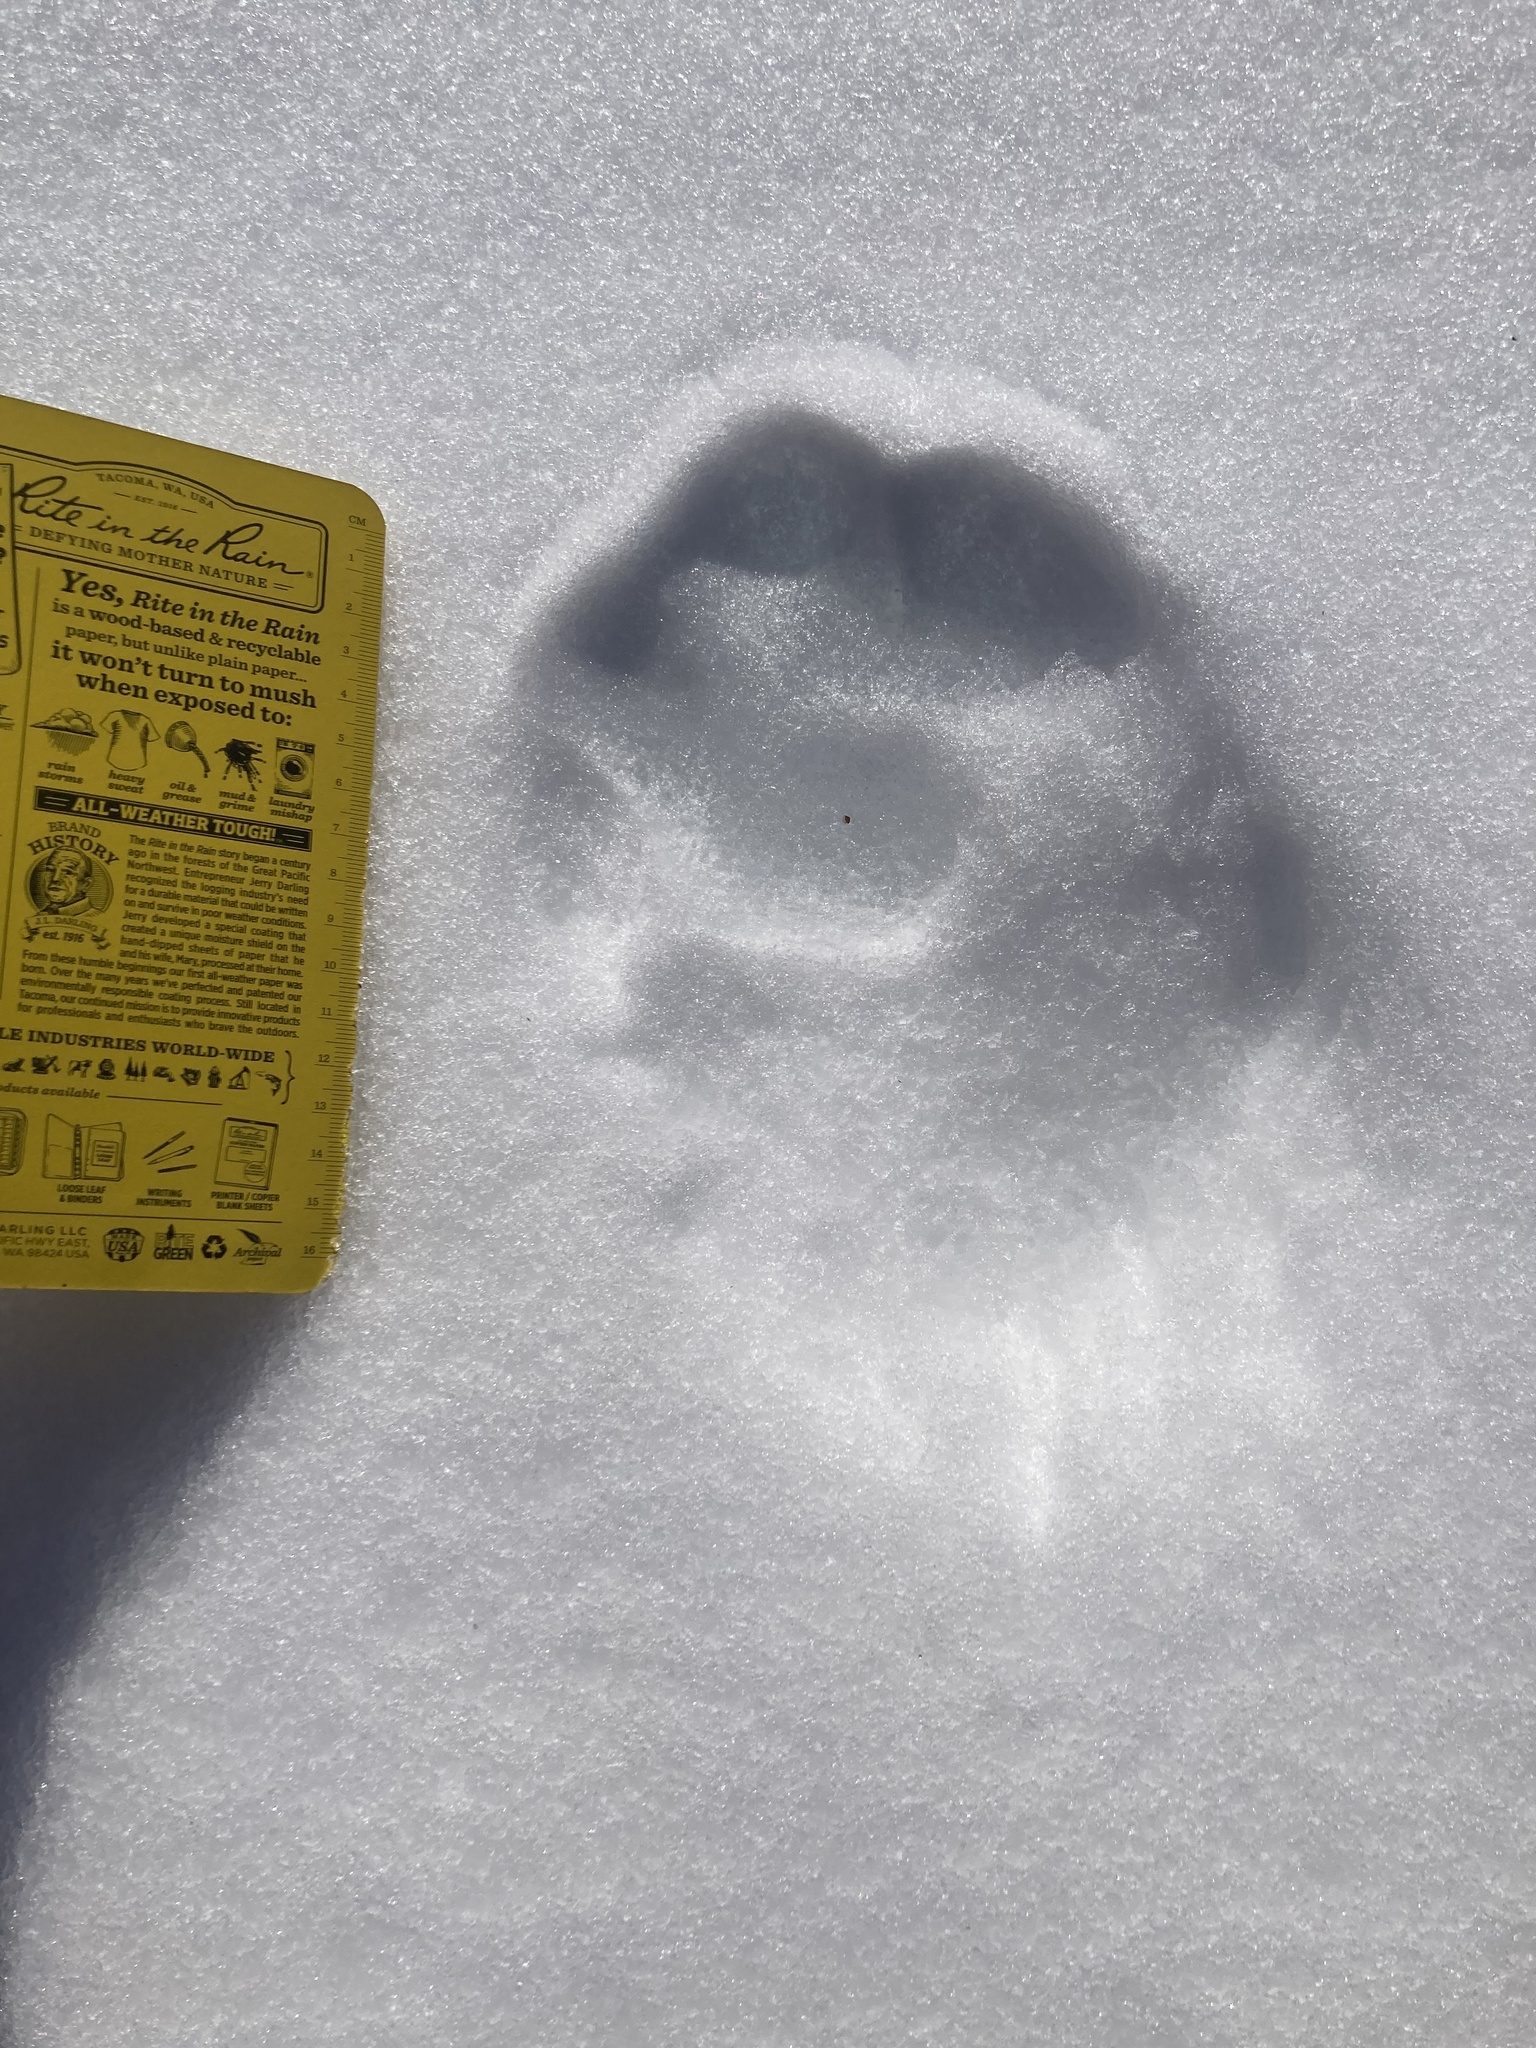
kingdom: Animalia
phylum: Chordata
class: Mammalia
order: Carnivora
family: Felidae
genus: Lynx
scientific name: Lynx canadensis
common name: Canadian lynx
